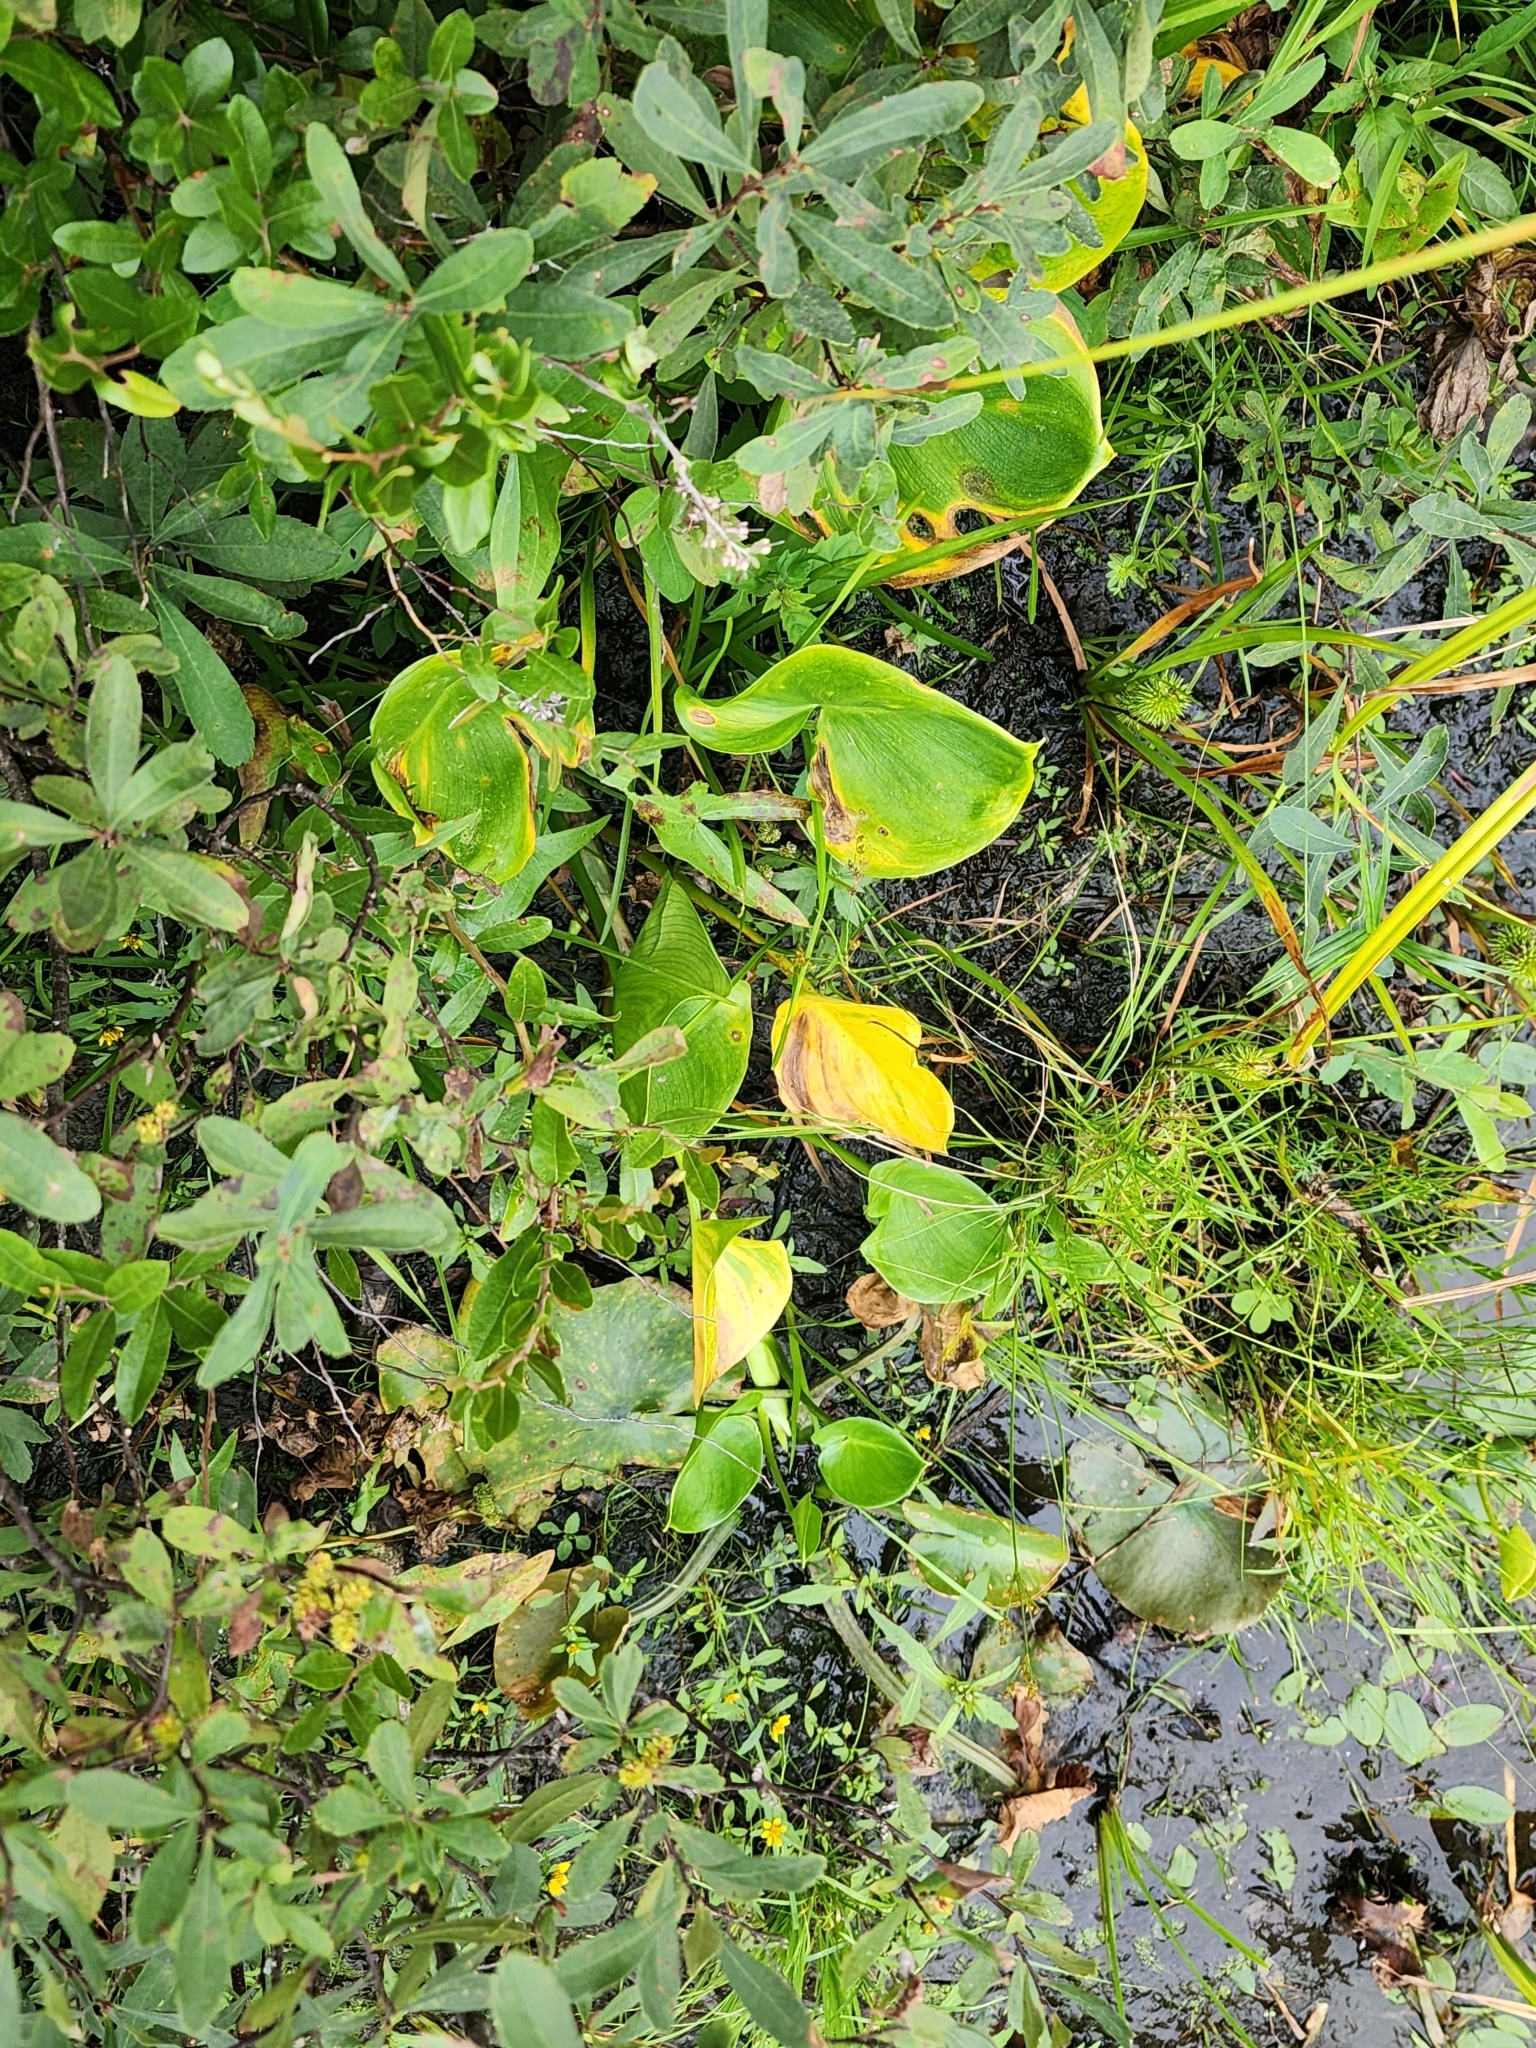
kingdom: Plantae
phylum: Tracheophyta
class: Liliopsida
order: Alismatales
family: Araceae
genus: Calla
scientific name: Calla palustris
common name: Bog arum
